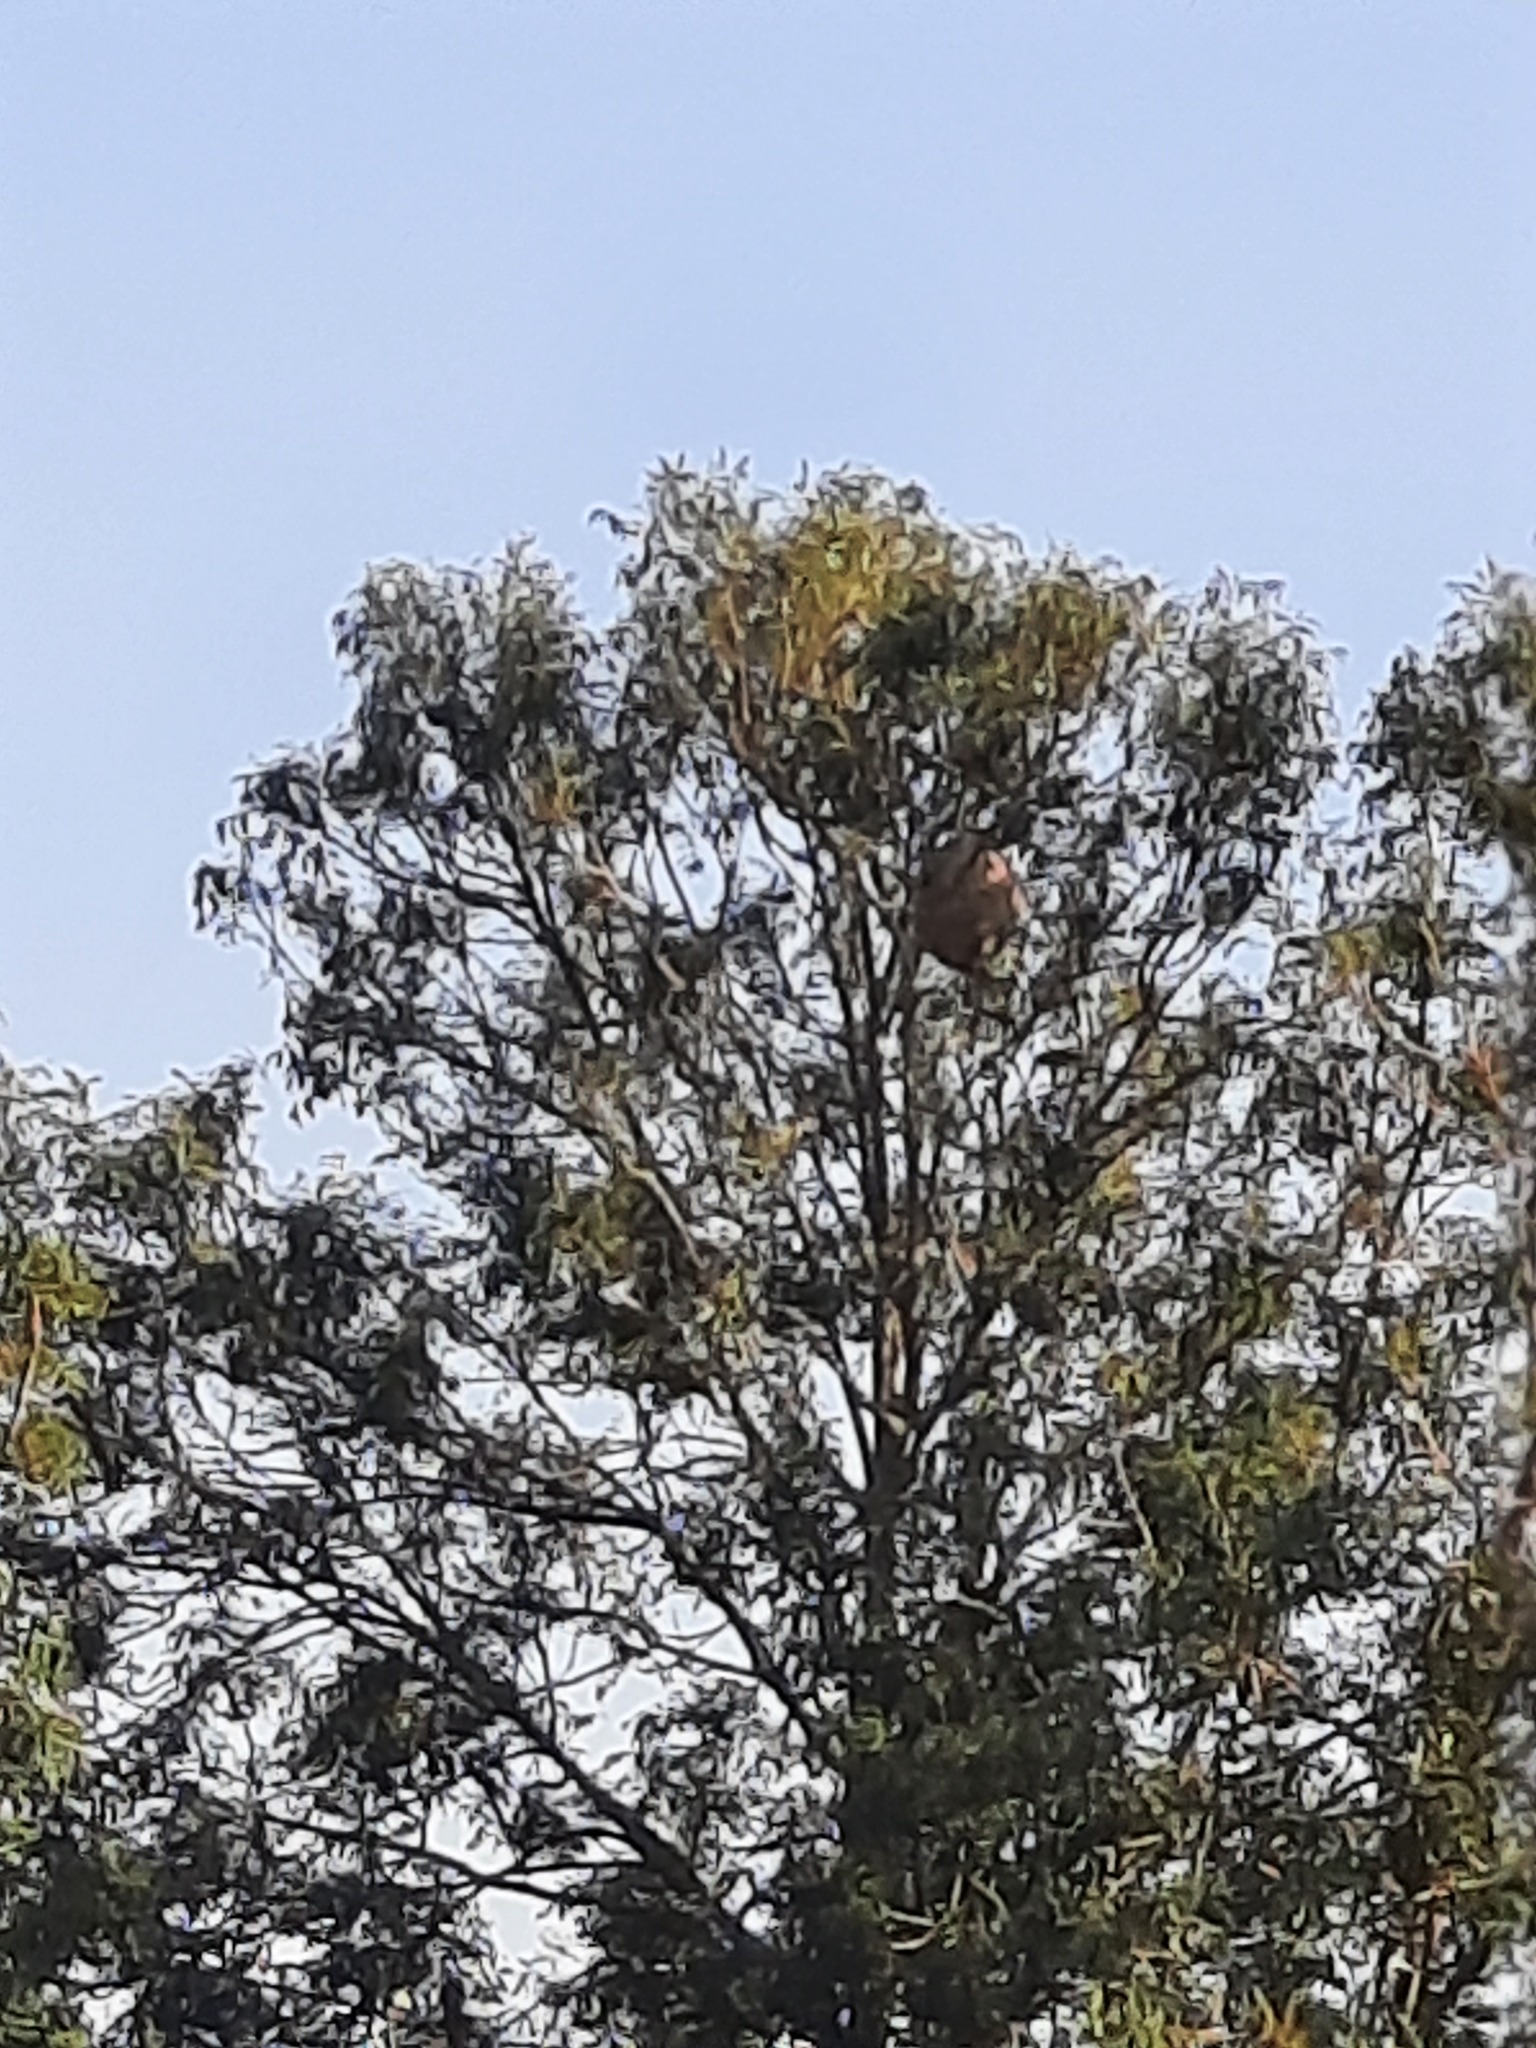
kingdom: Animalia
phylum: Arthropoda
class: Insecta
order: Hymenoptera
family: Vespidae
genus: Vespa
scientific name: Vespa velutina
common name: Asian hornet
